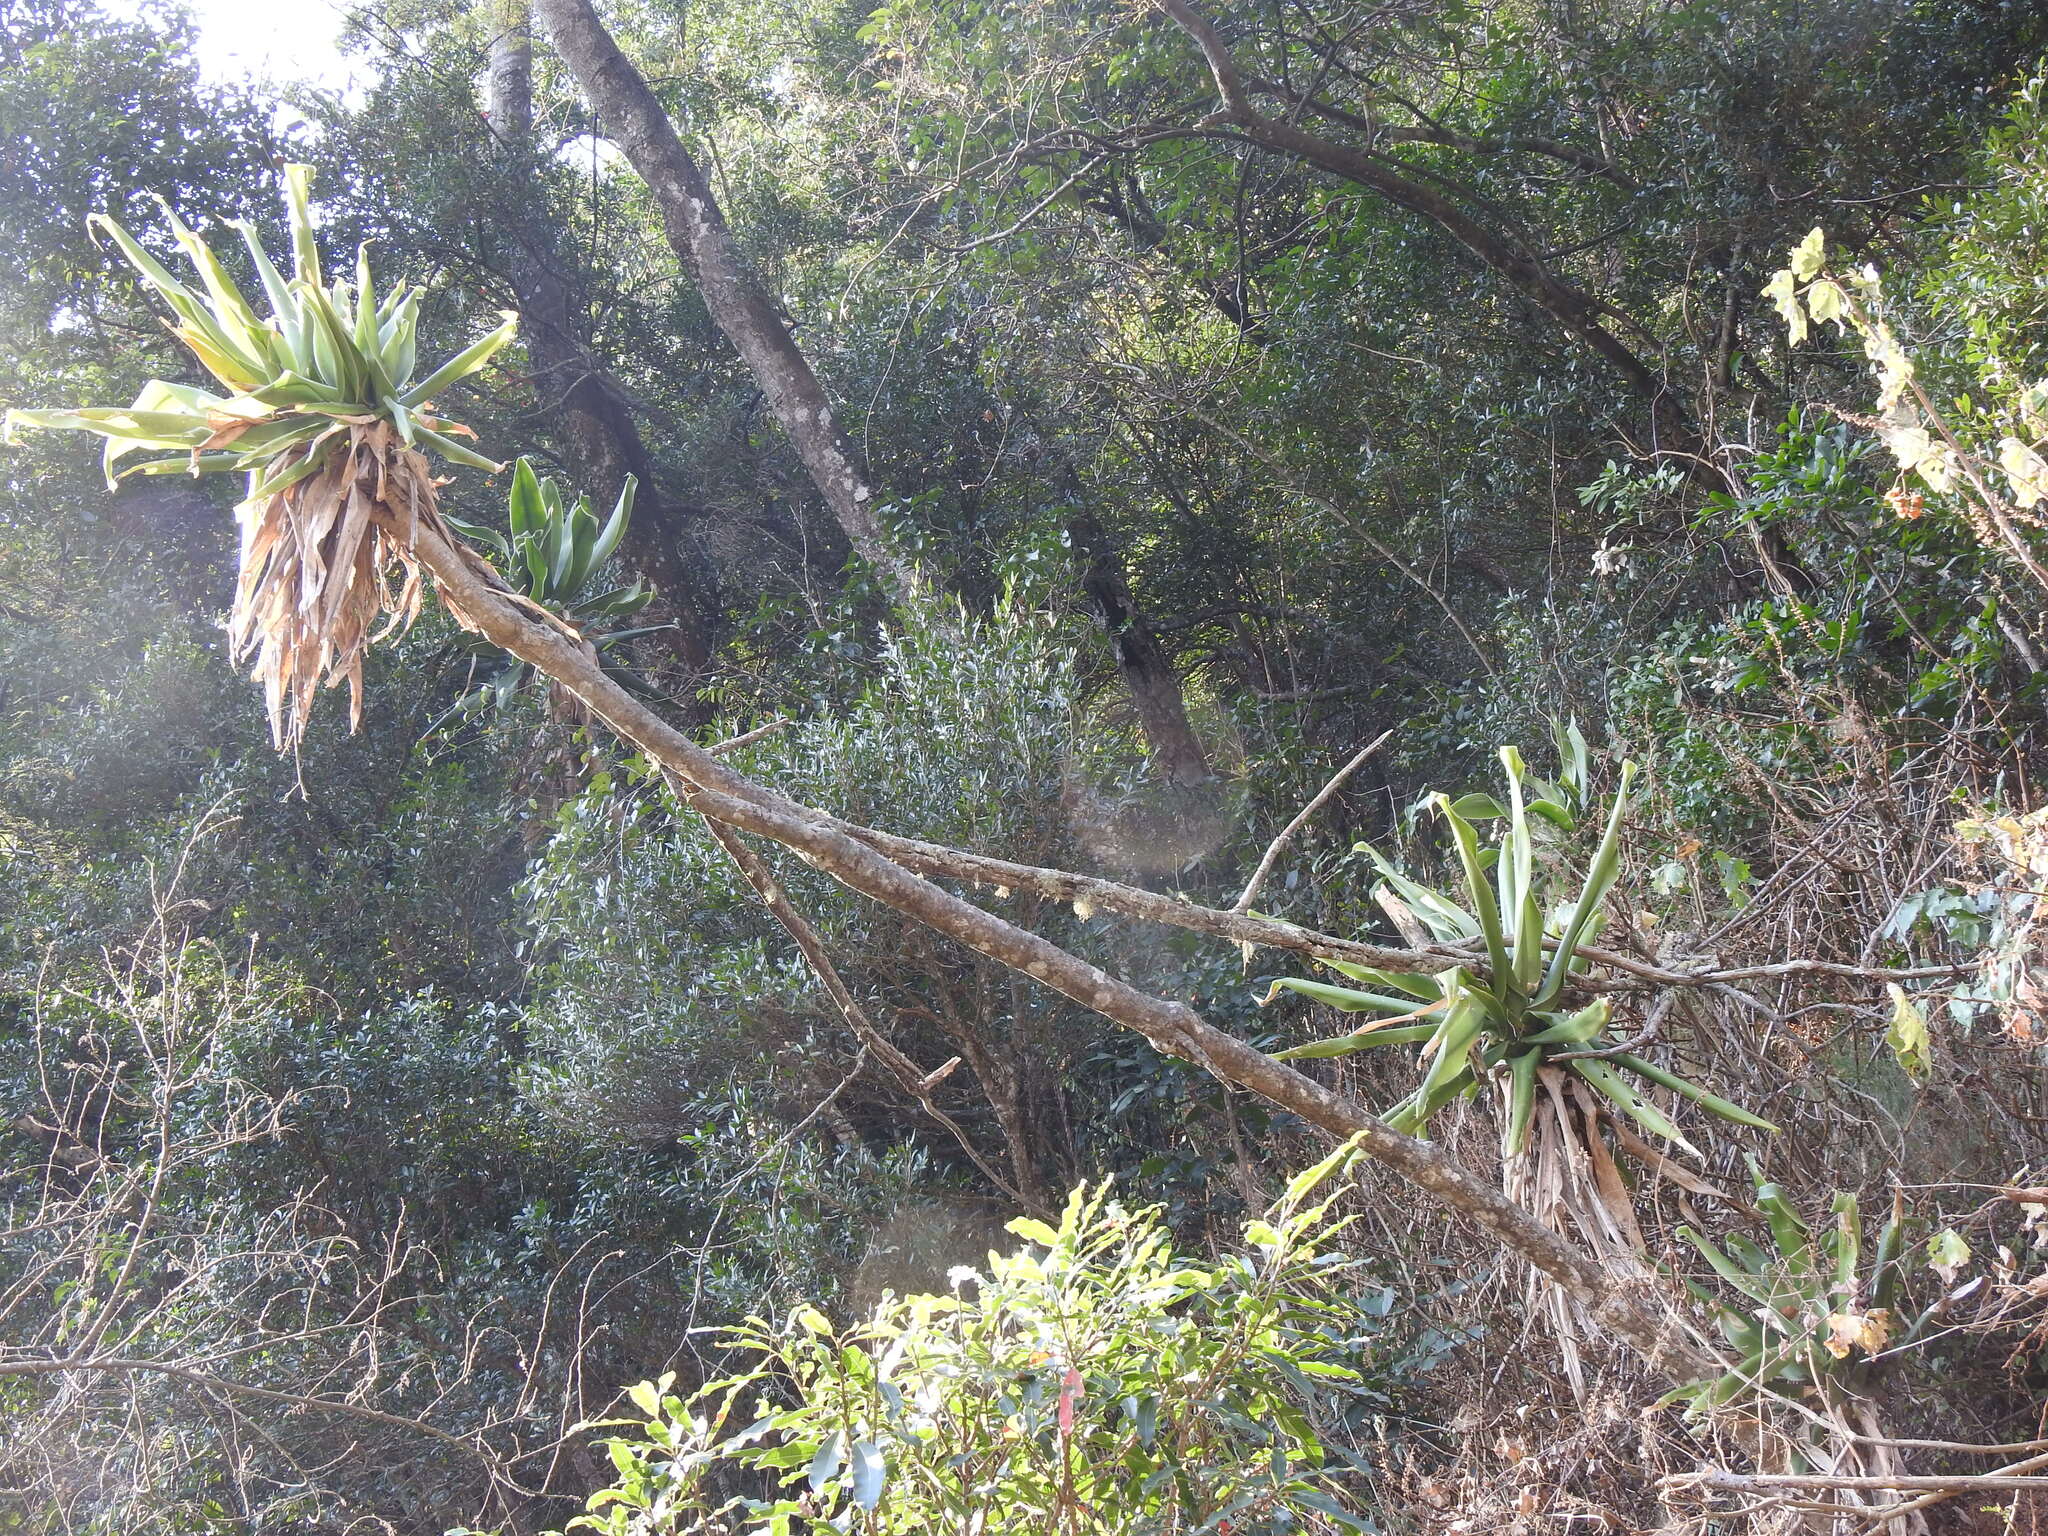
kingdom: Plantae
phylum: Tracheophyta
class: Liliopsida
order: Asparagales
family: Asparagaceae
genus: Dracaena
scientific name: Dracaena aletriformis
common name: Large-leaved dragon tree
